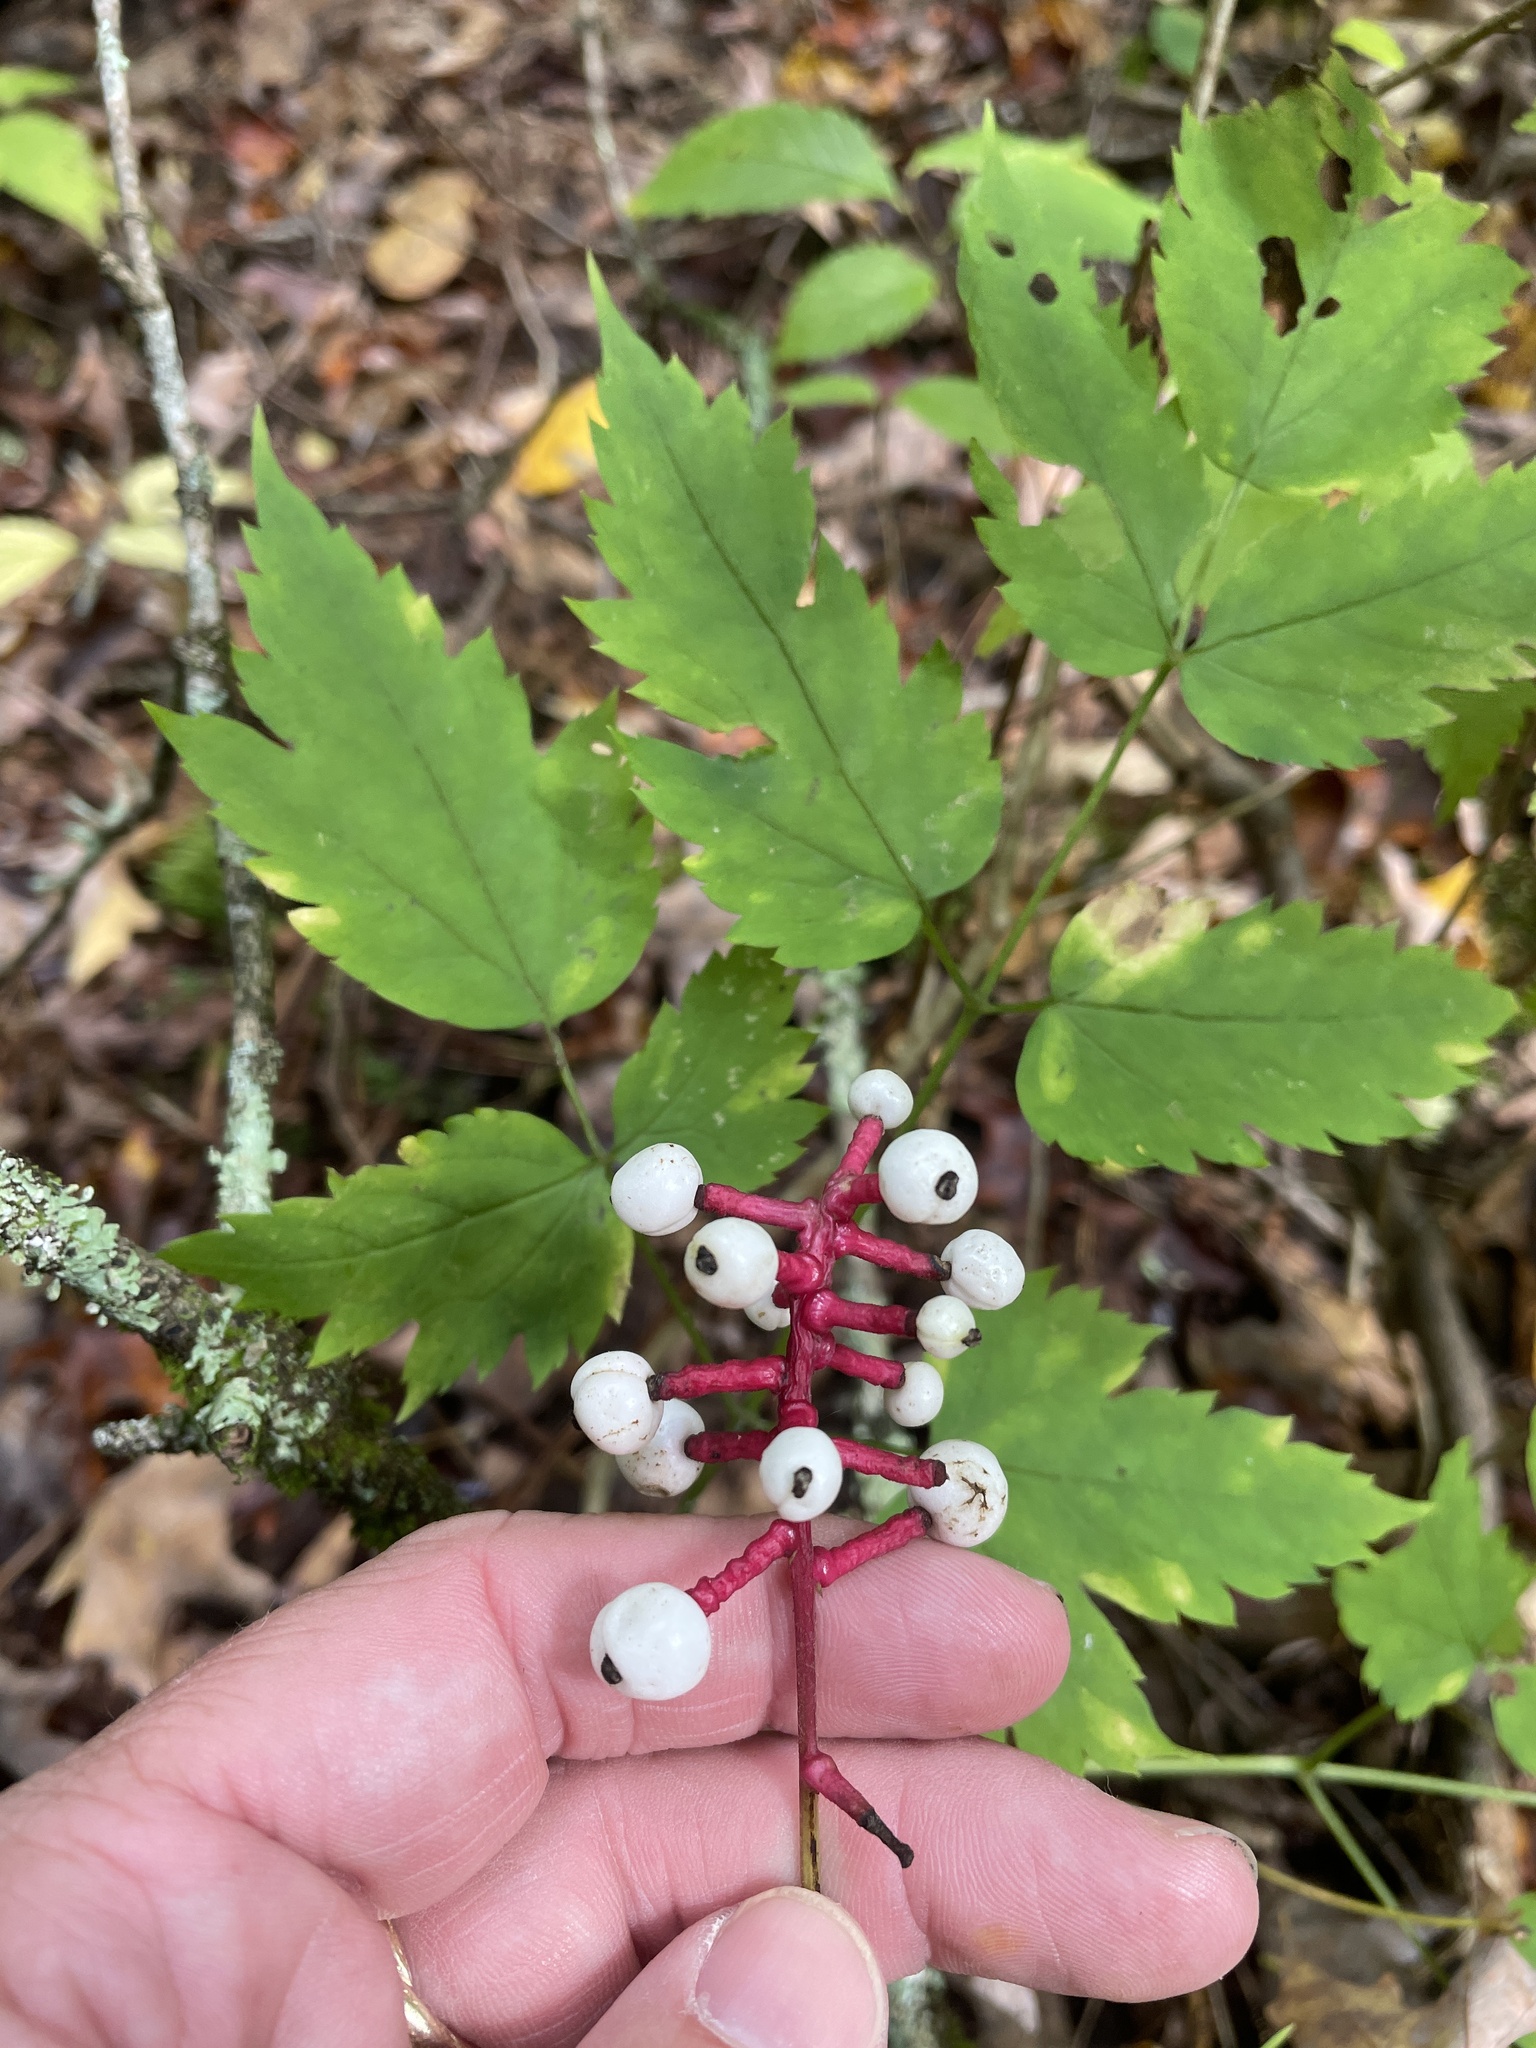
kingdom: Plantae
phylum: Tracheophyta
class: Magnoliopsida
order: Ranunculales
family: Ranunculaceae
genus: Actaea
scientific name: Actaea pachypoda
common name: Doll's-eyes
